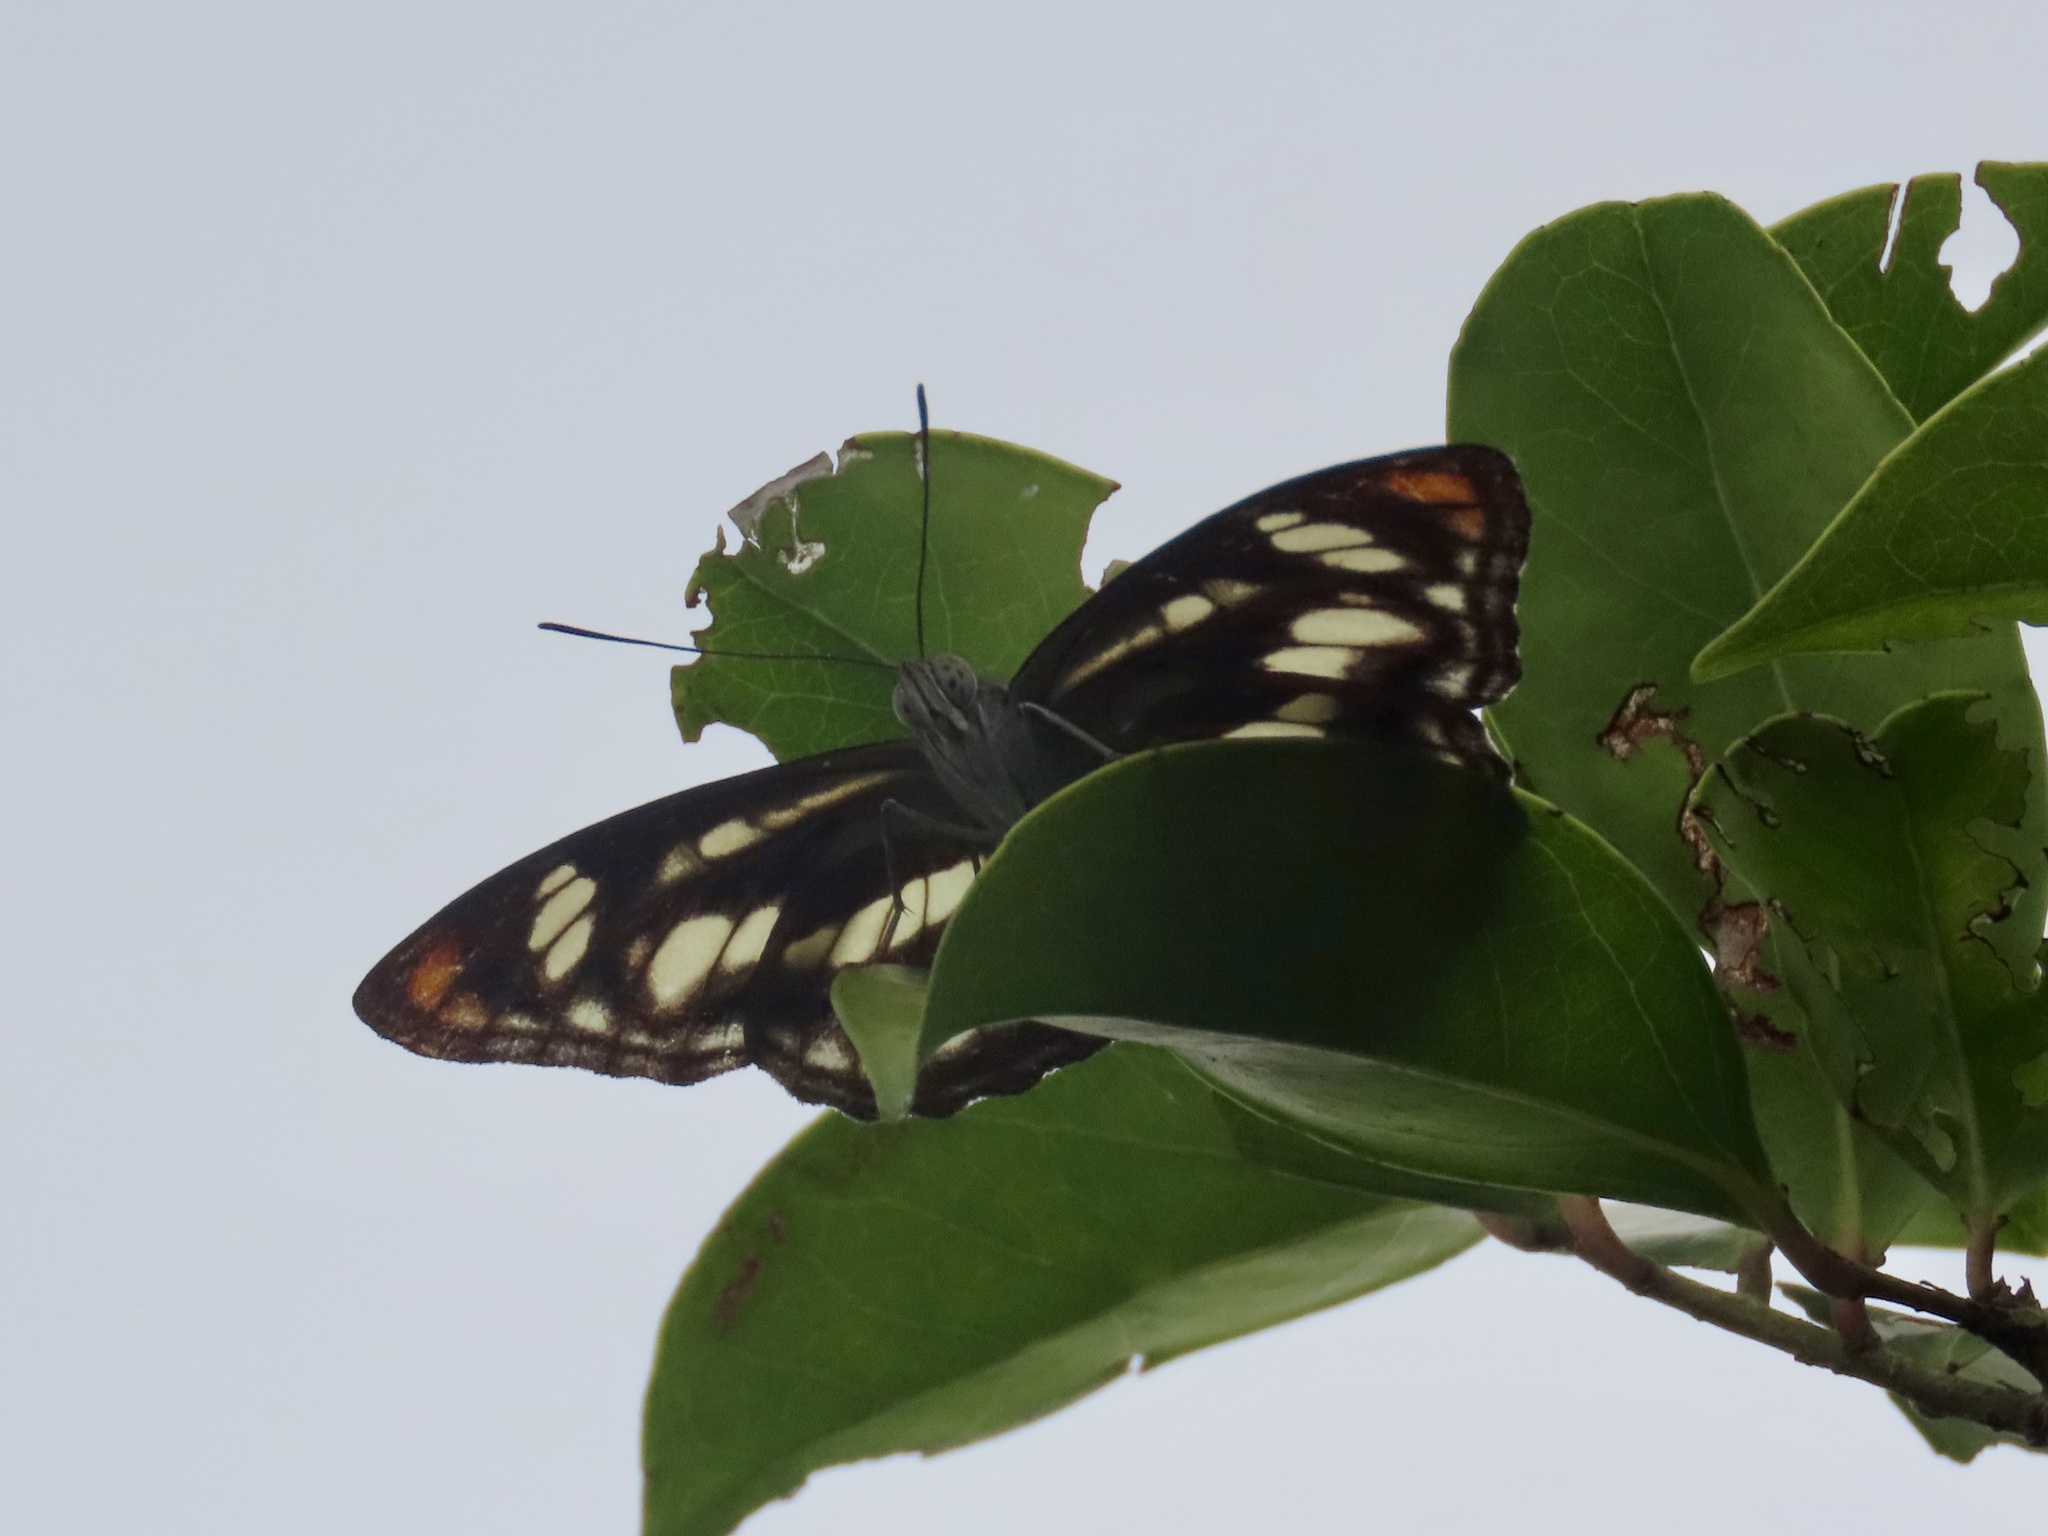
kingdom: Animalia
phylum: Arthropoda
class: Insecta
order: Lepidoptera
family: Nymphalidae
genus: Parathyma
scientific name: Parathyma nefte
